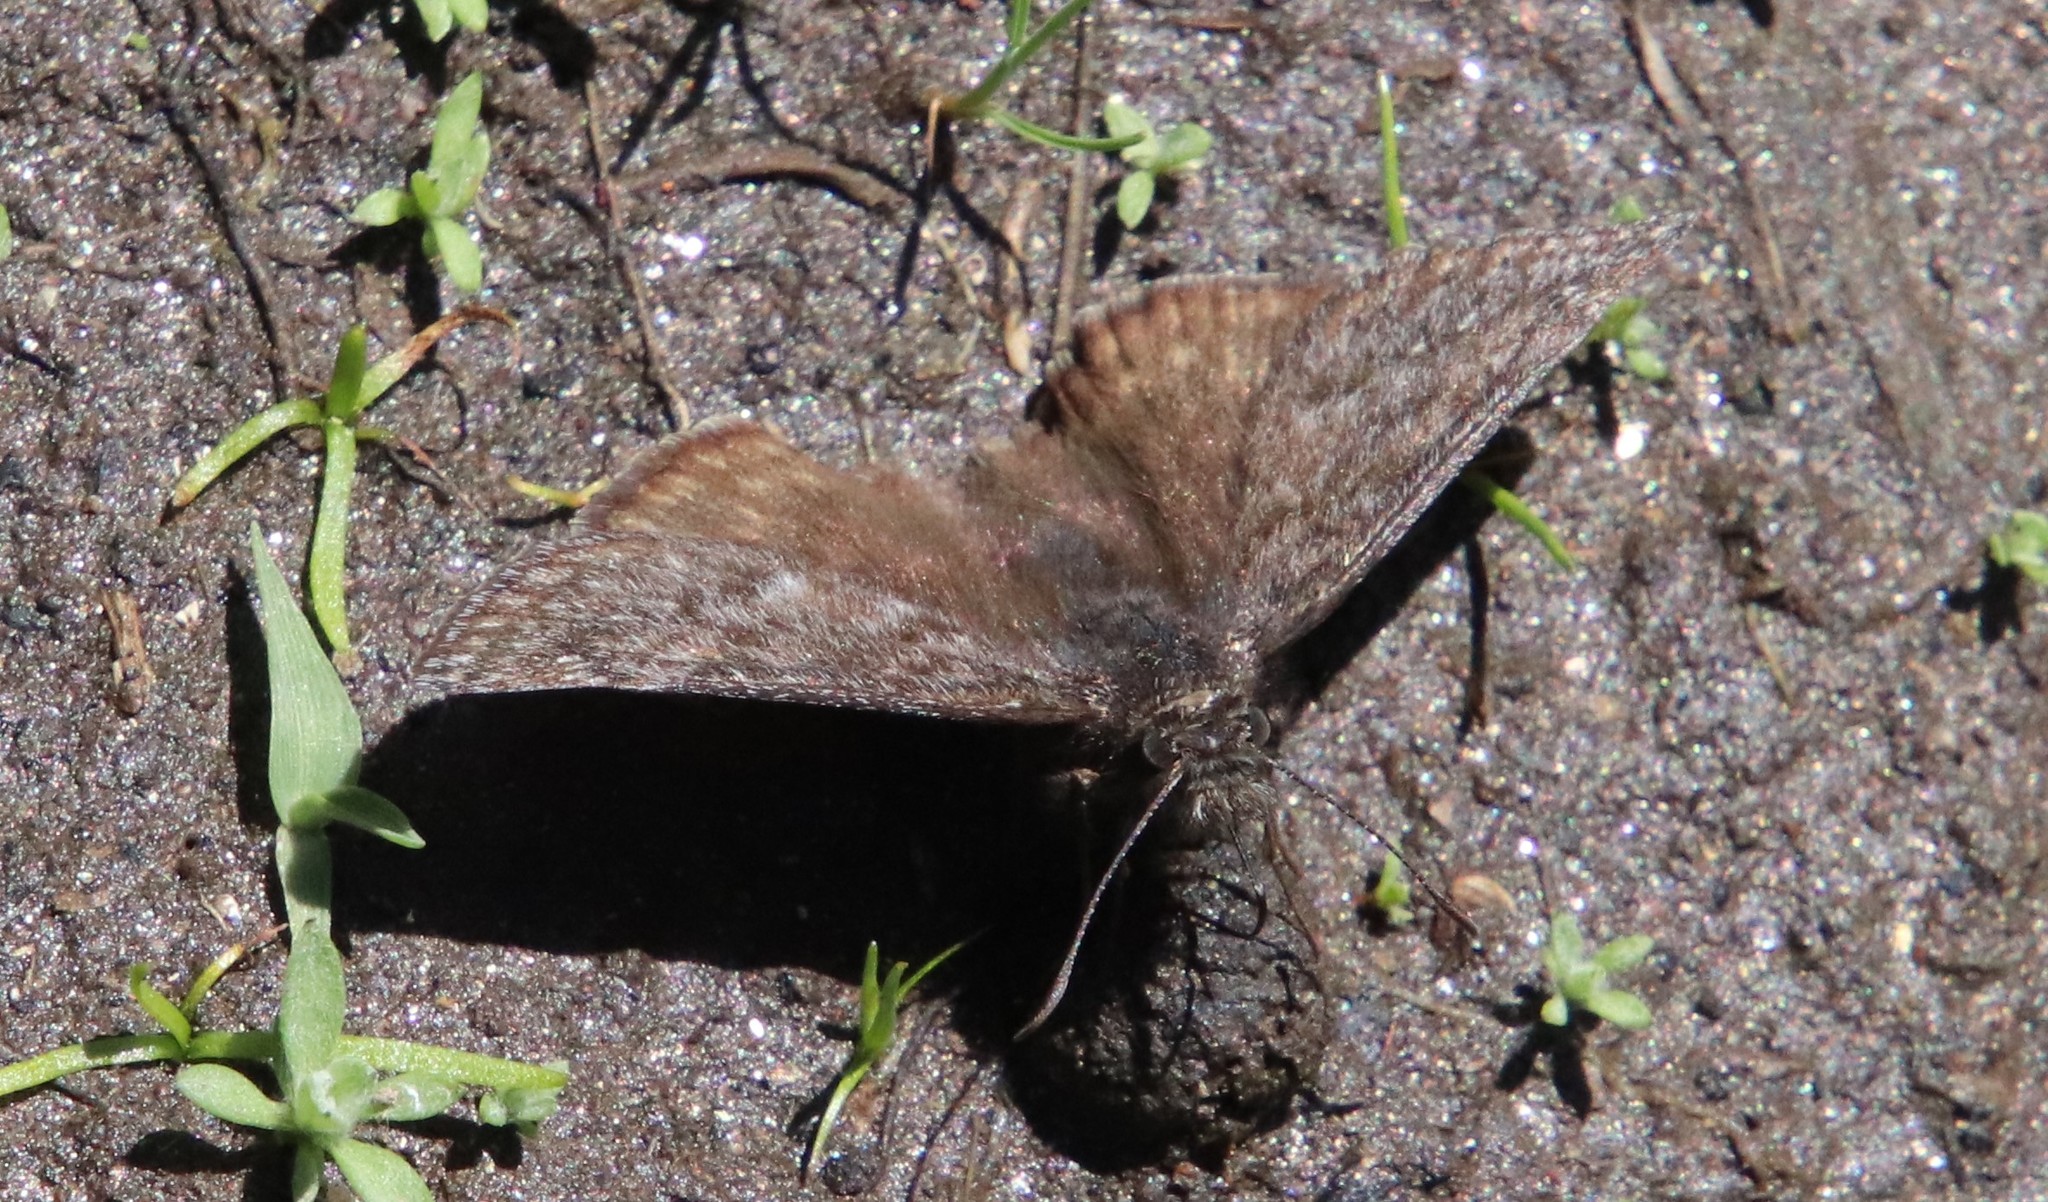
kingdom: Animalia
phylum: Arthropoda
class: Insecta
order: Lepidoptera
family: Hesperiidae
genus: Erynnis
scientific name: Erynnis propertius
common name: Propertius duskywing
